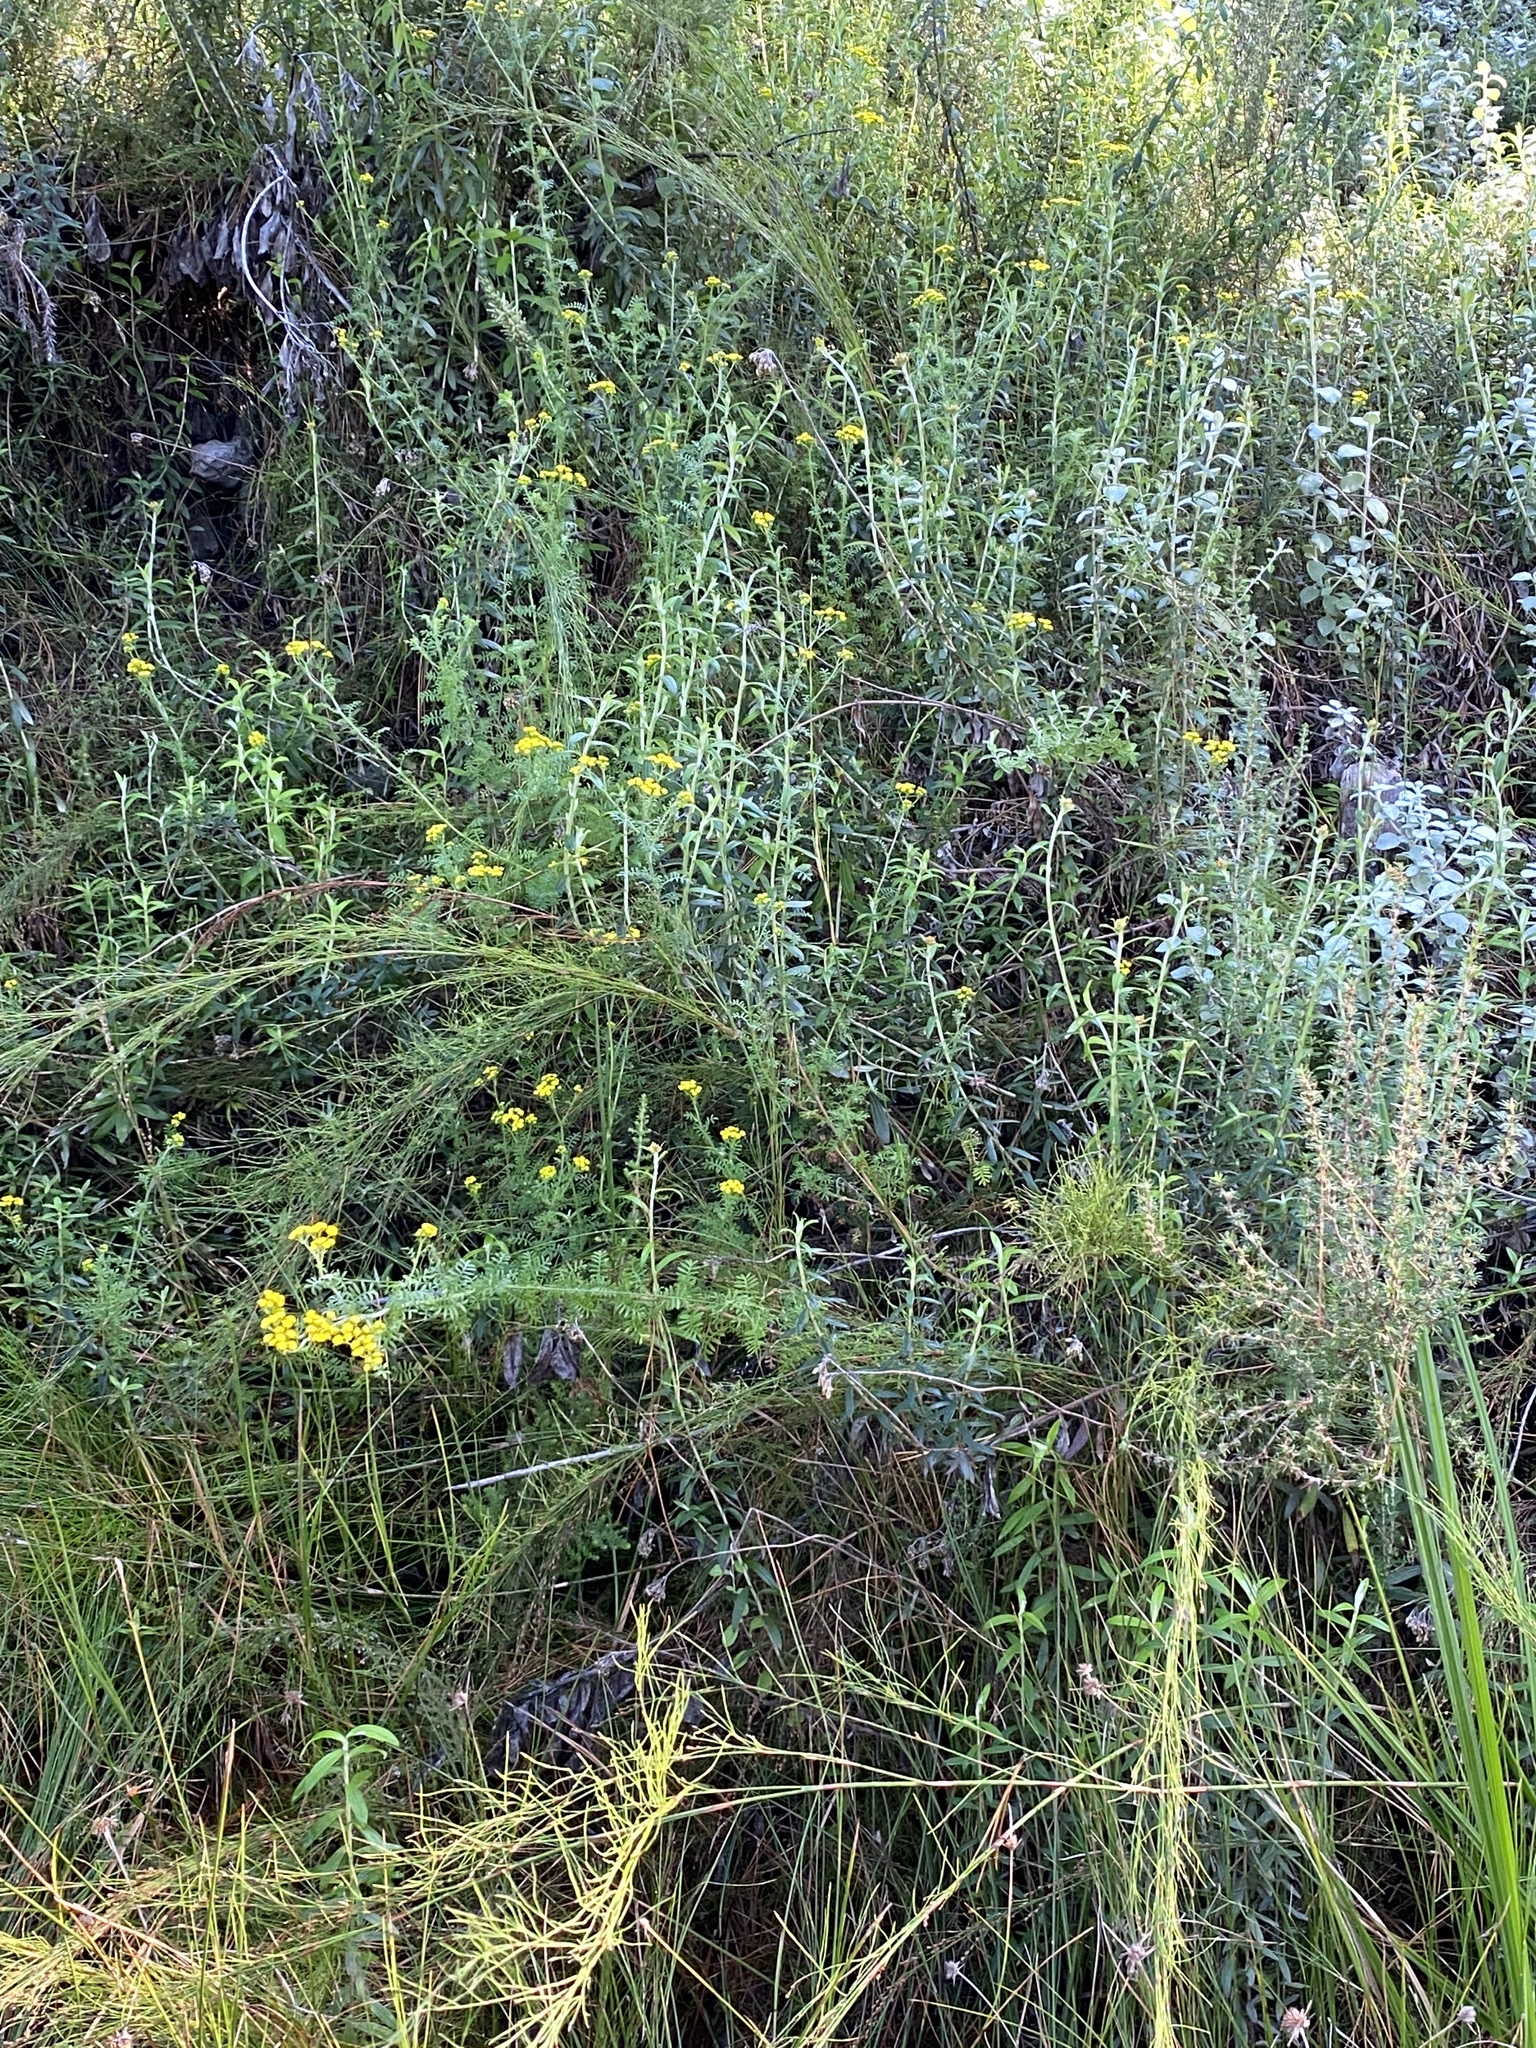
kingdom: Plantae
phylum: Tracheophyta
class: Magnoliopsida
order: Asterales
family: Asteraceae
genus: Hippia
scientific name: Hippia frutescens
